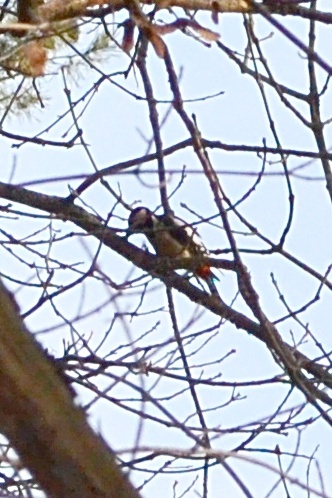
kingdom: Animalia
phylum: Chordata
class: Aves
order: Piciformes
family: Picidae
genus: Dendrocopos
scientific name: Dendrocopos major
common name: Great spotted woodpecker
